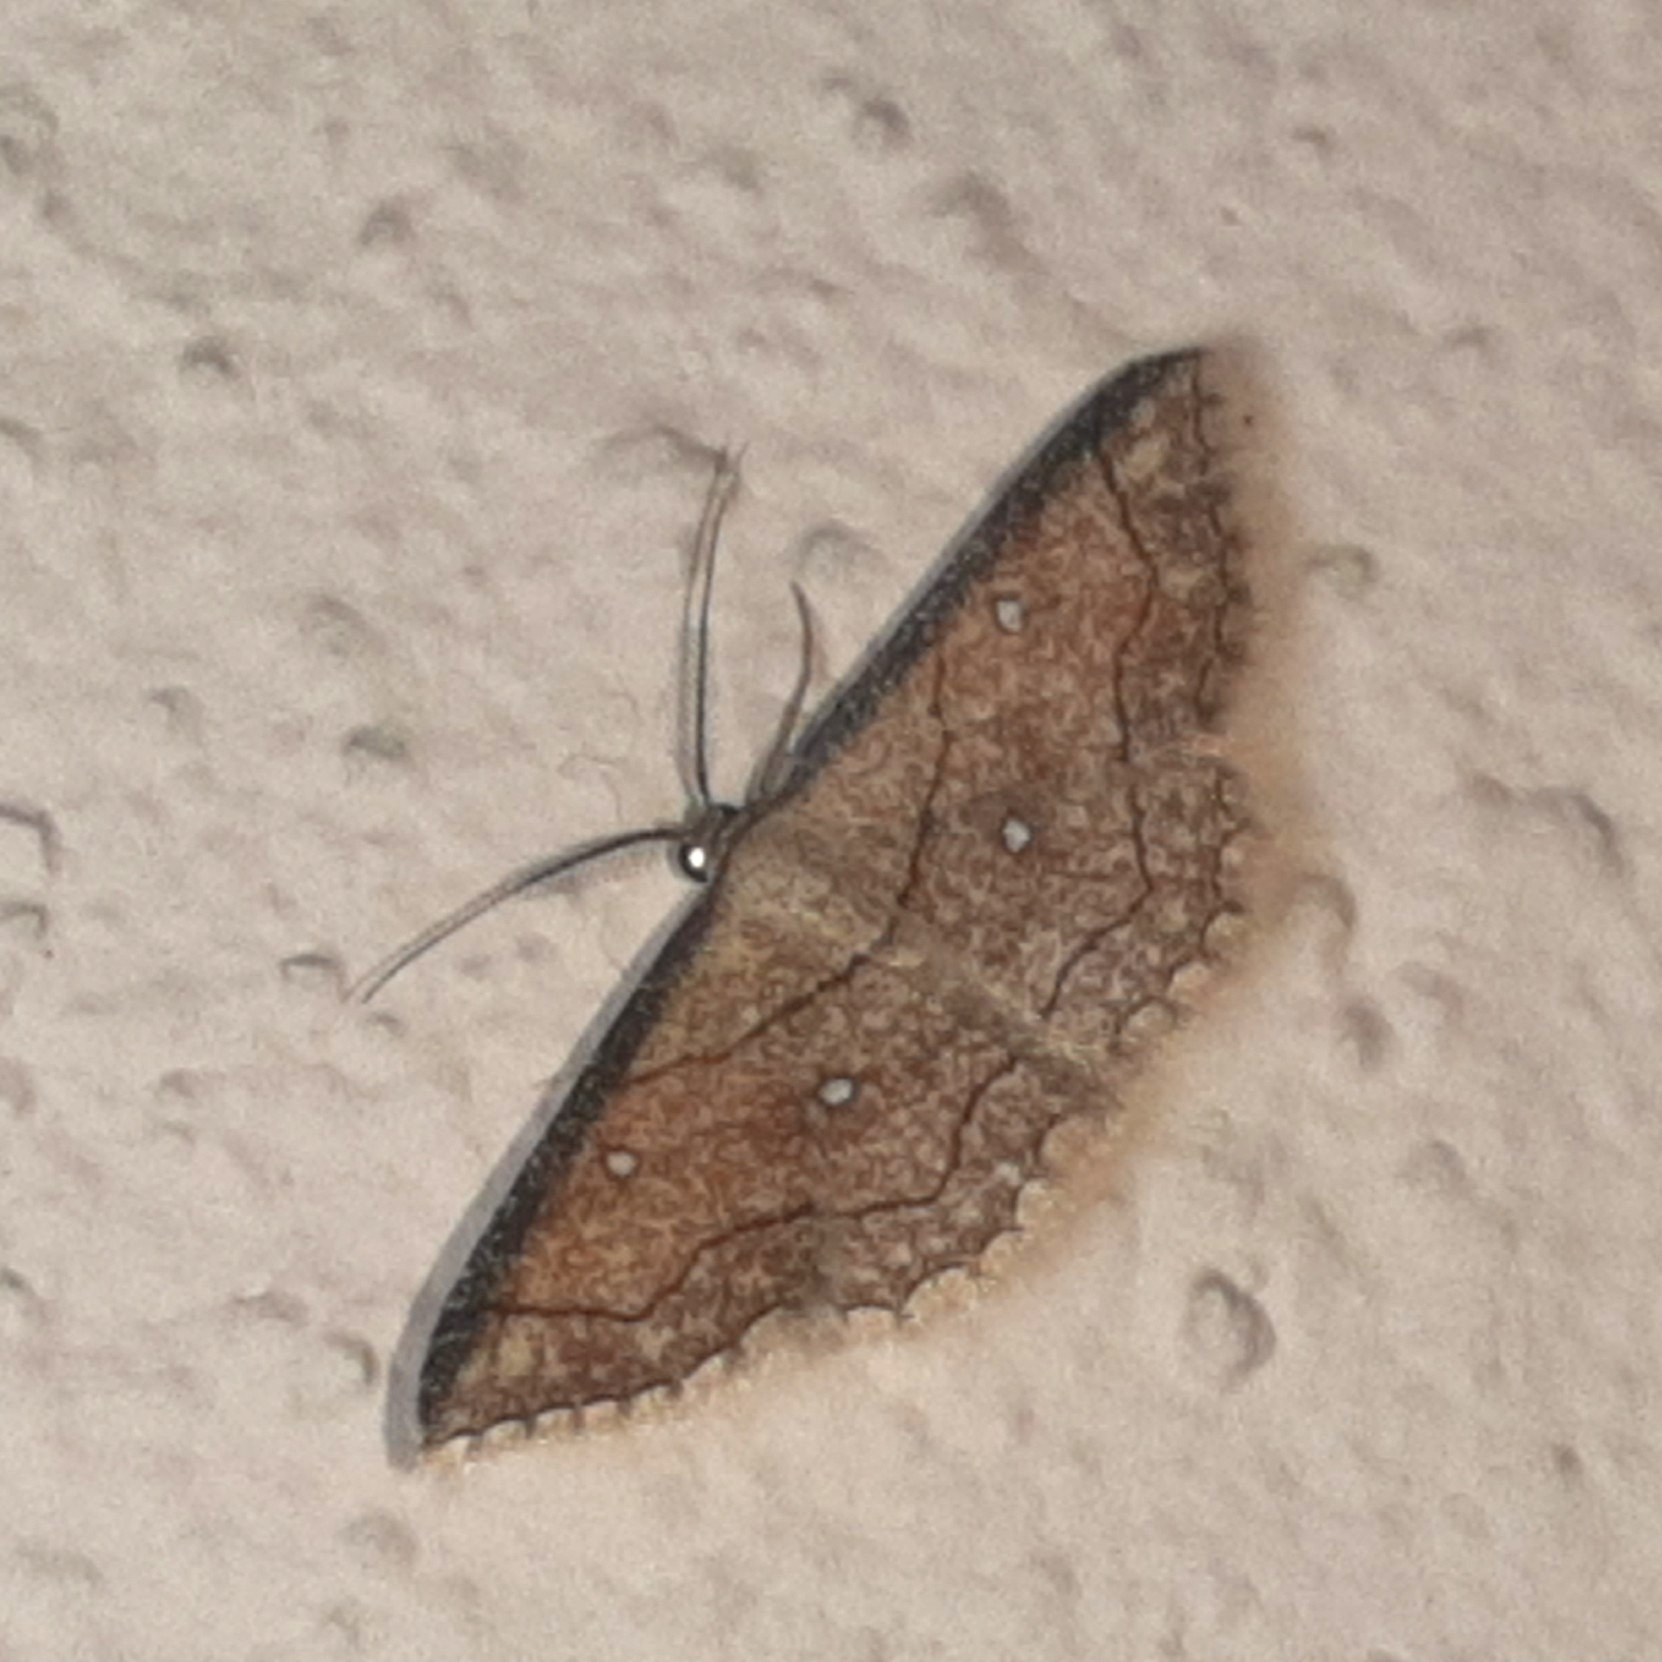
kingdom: Animalia
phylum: Arthropoda
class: Insecta
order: Lepidoptera
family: Geometridae
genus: Cyclophora
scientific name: Cyclophora coecaria
